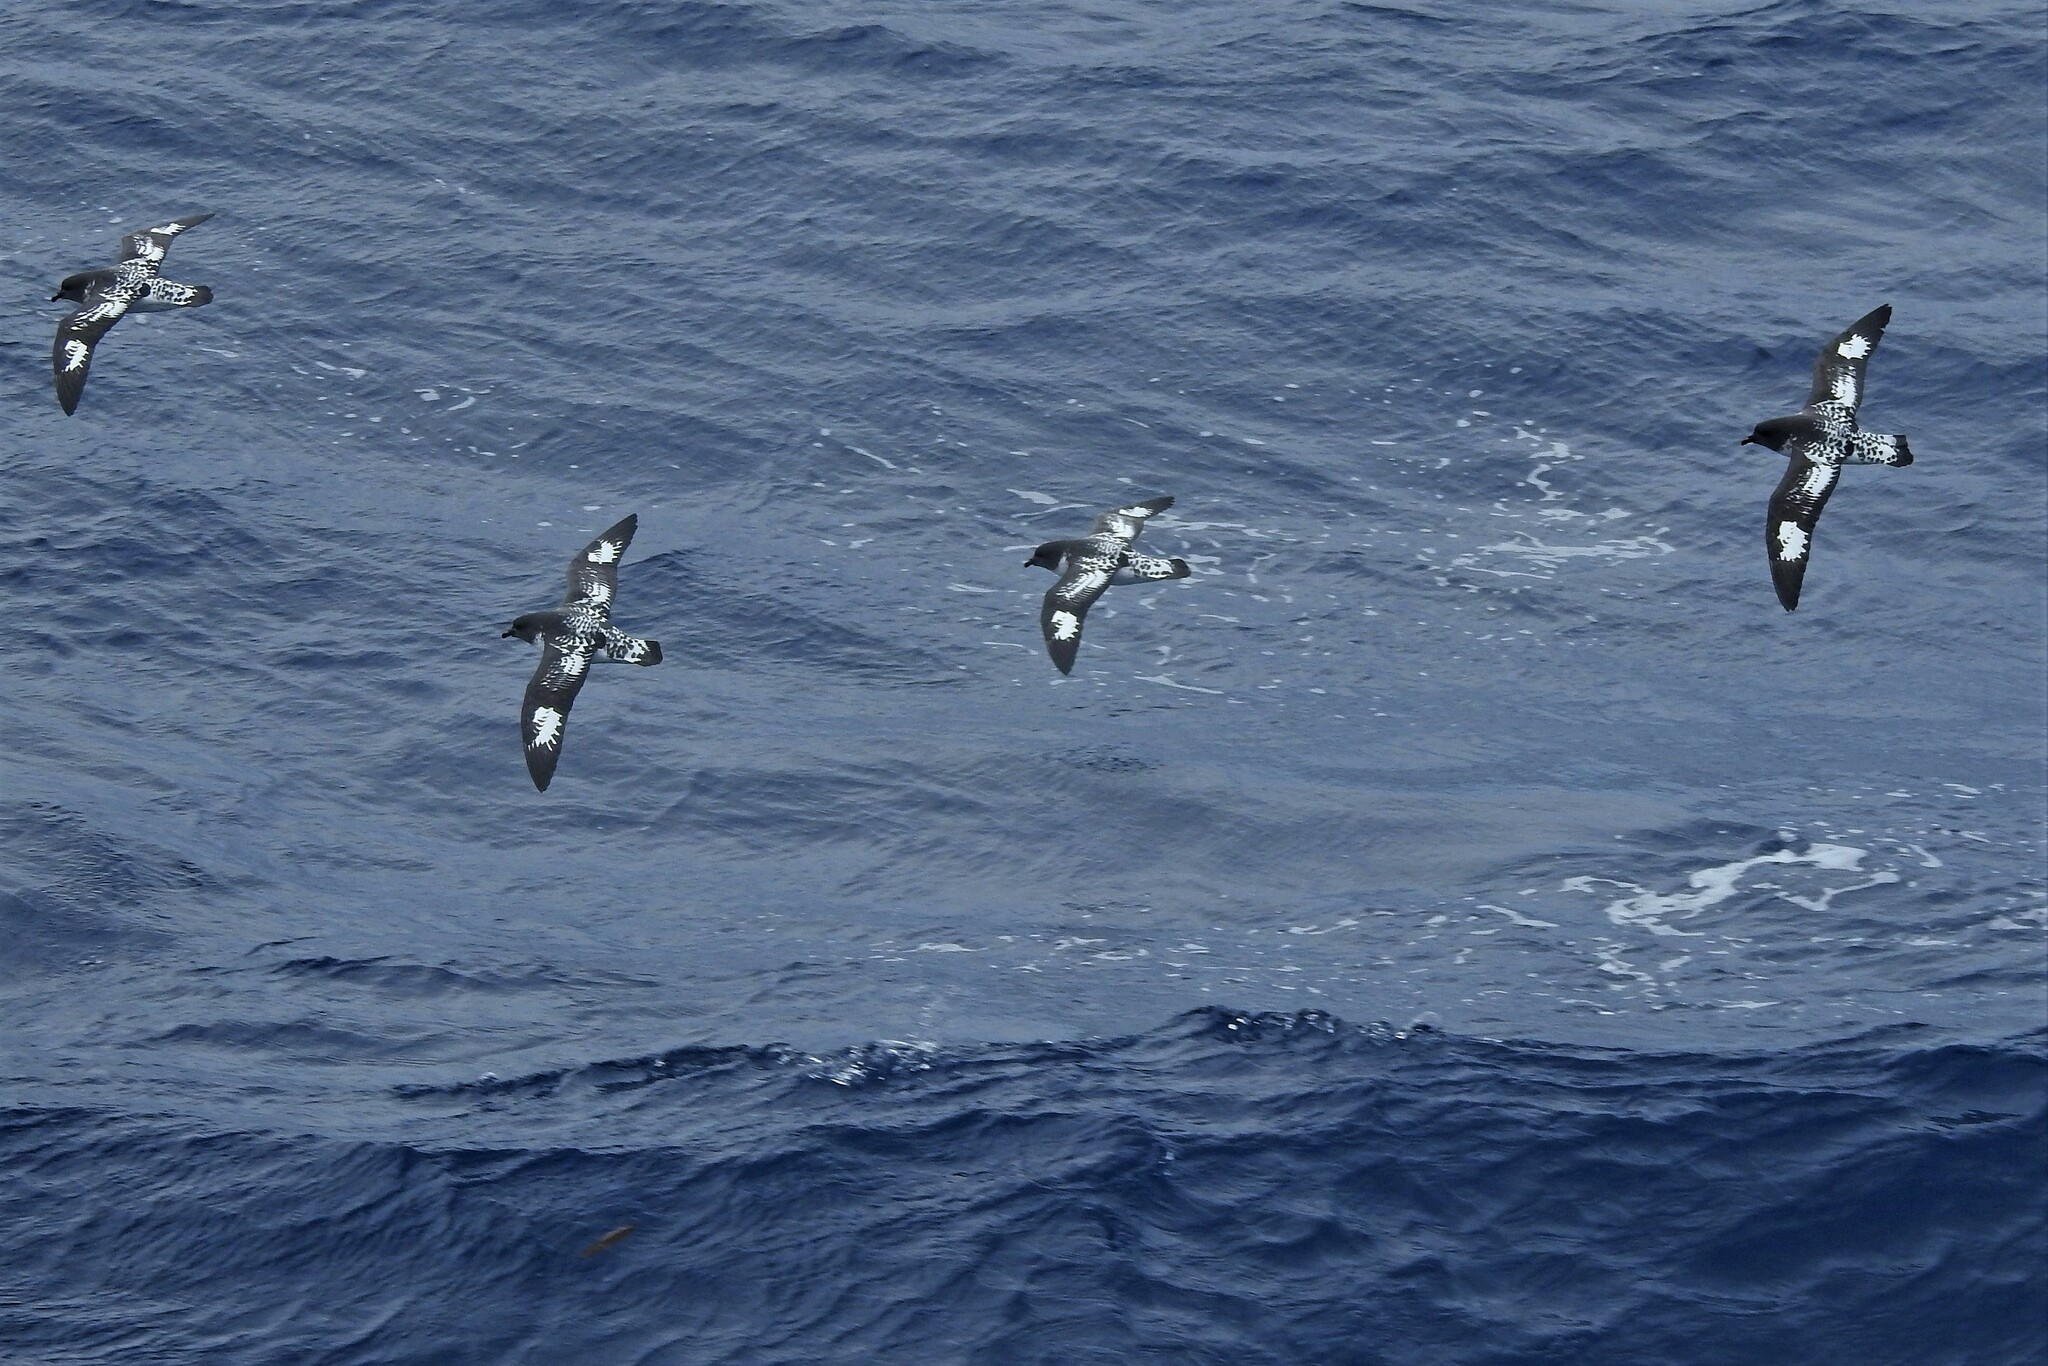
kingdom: Animalia
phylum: Chordata
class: Aves
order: Procellariiformes
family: Procellariidae
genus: Daption
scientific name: Daption capense
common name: Cape petrel
